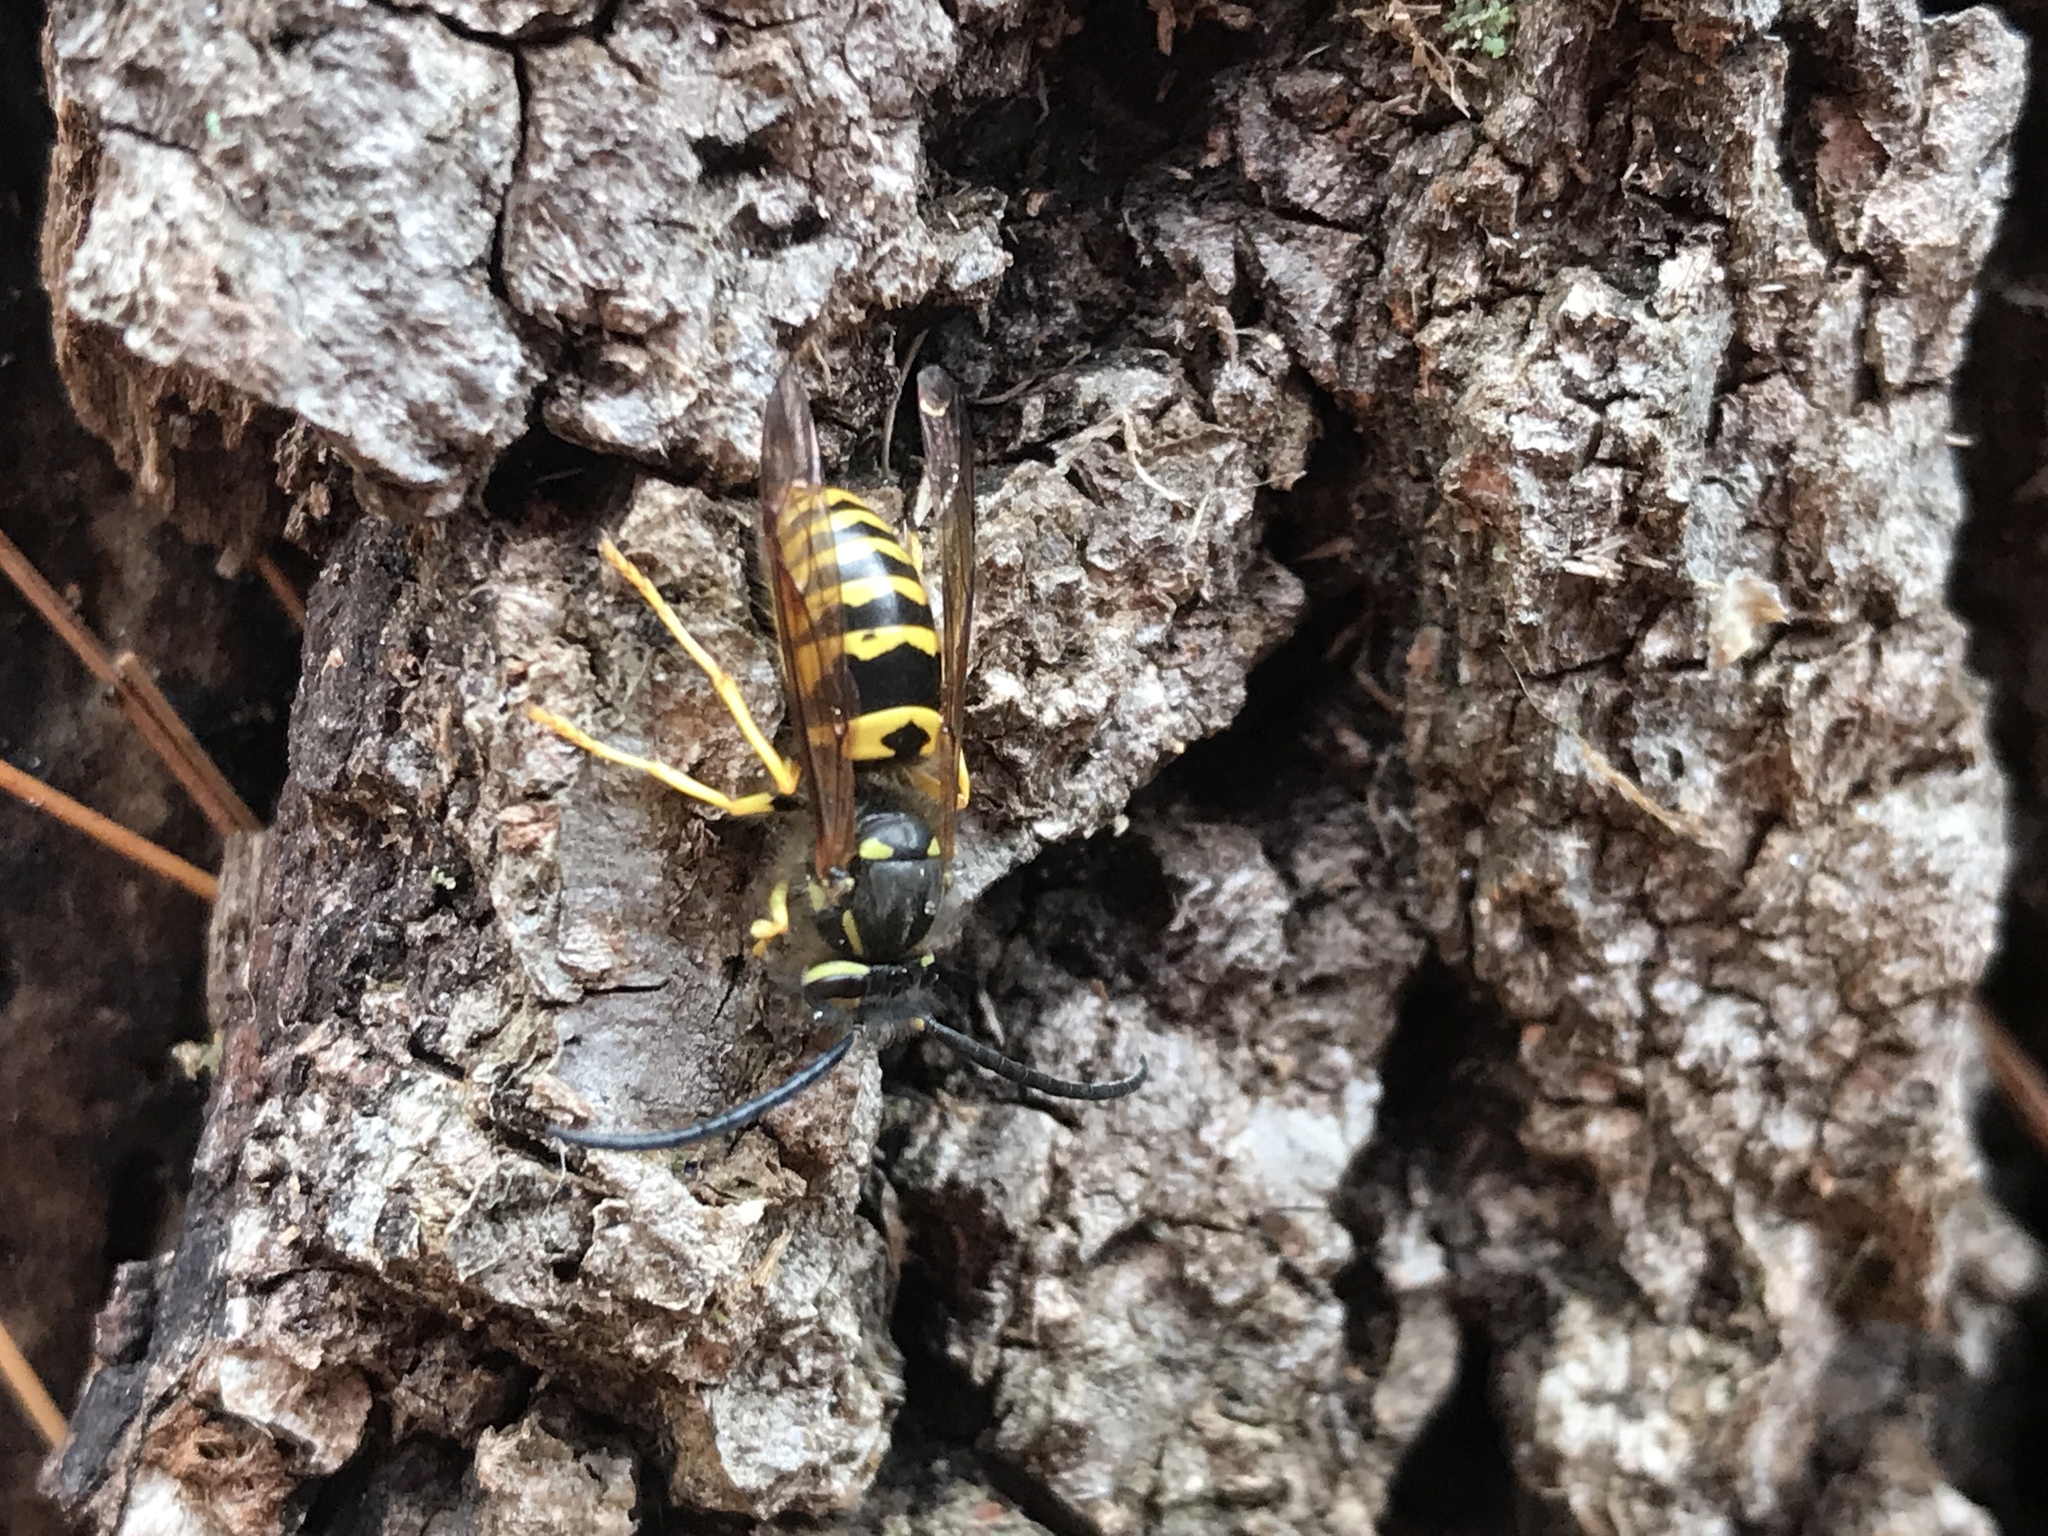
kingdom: Animalia
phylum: Arthropoda
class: Insecta
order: Hymenoptera
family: Vespidae
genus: Vespula
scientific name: Vespula maculifrons
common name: Eastern yellowjacket
